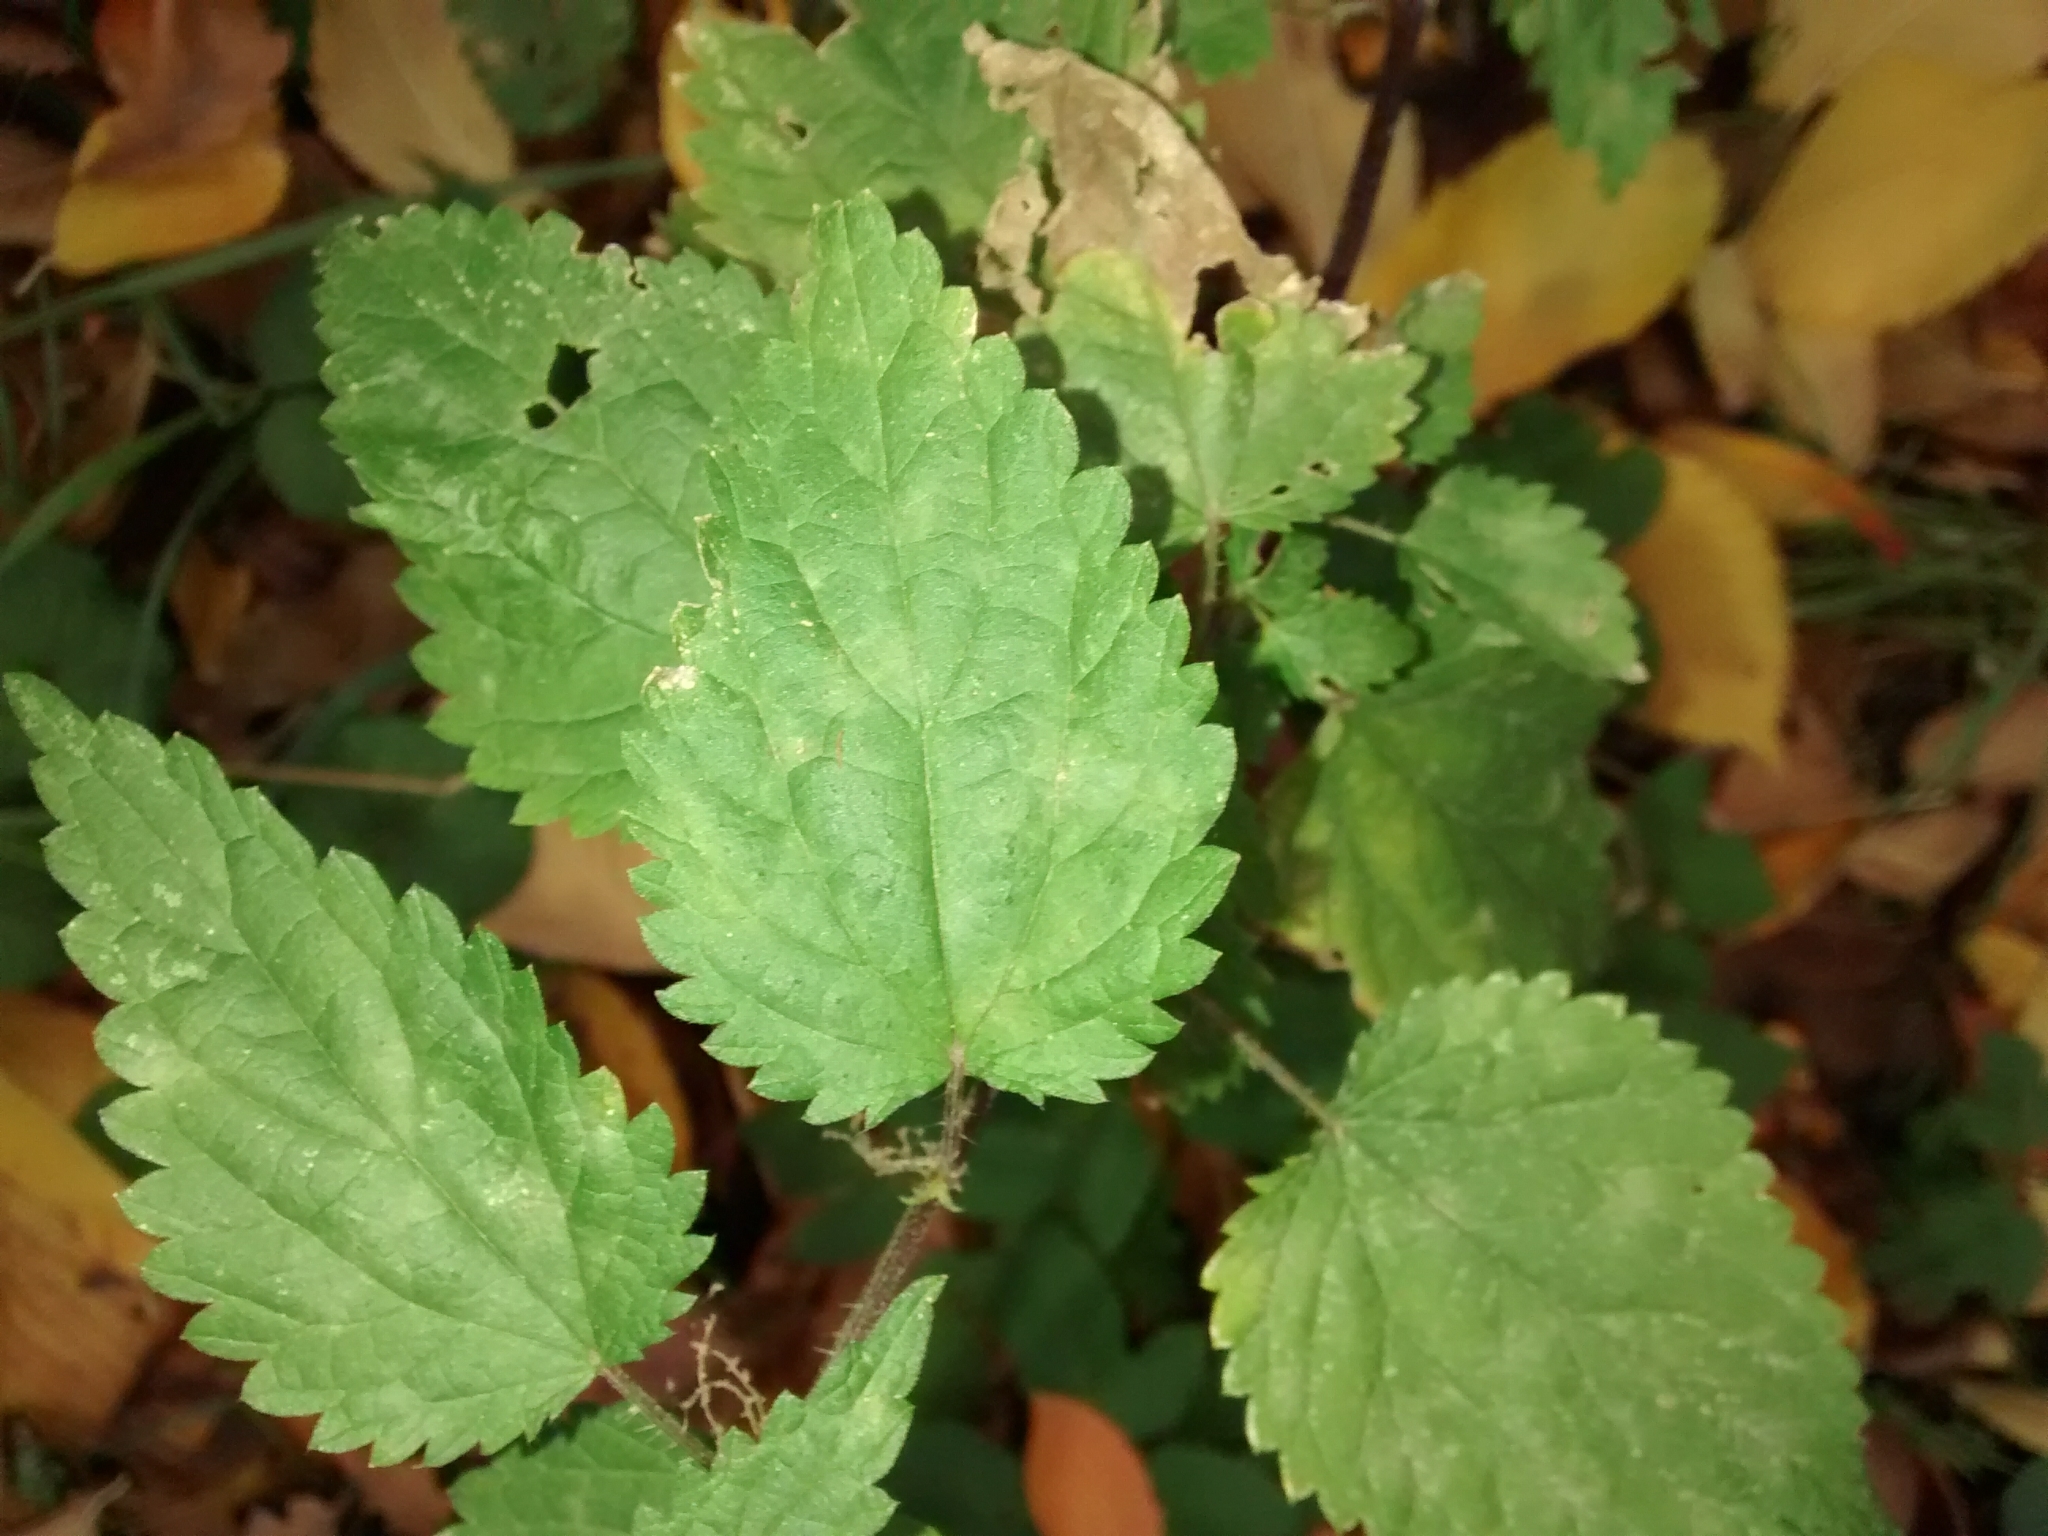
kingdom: Plantae
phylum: Tracheophyta
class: Magnoliopsida
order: Rosales
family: Urticaceae
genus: Urtica
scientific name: Urtica dioica
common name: Common nettle
